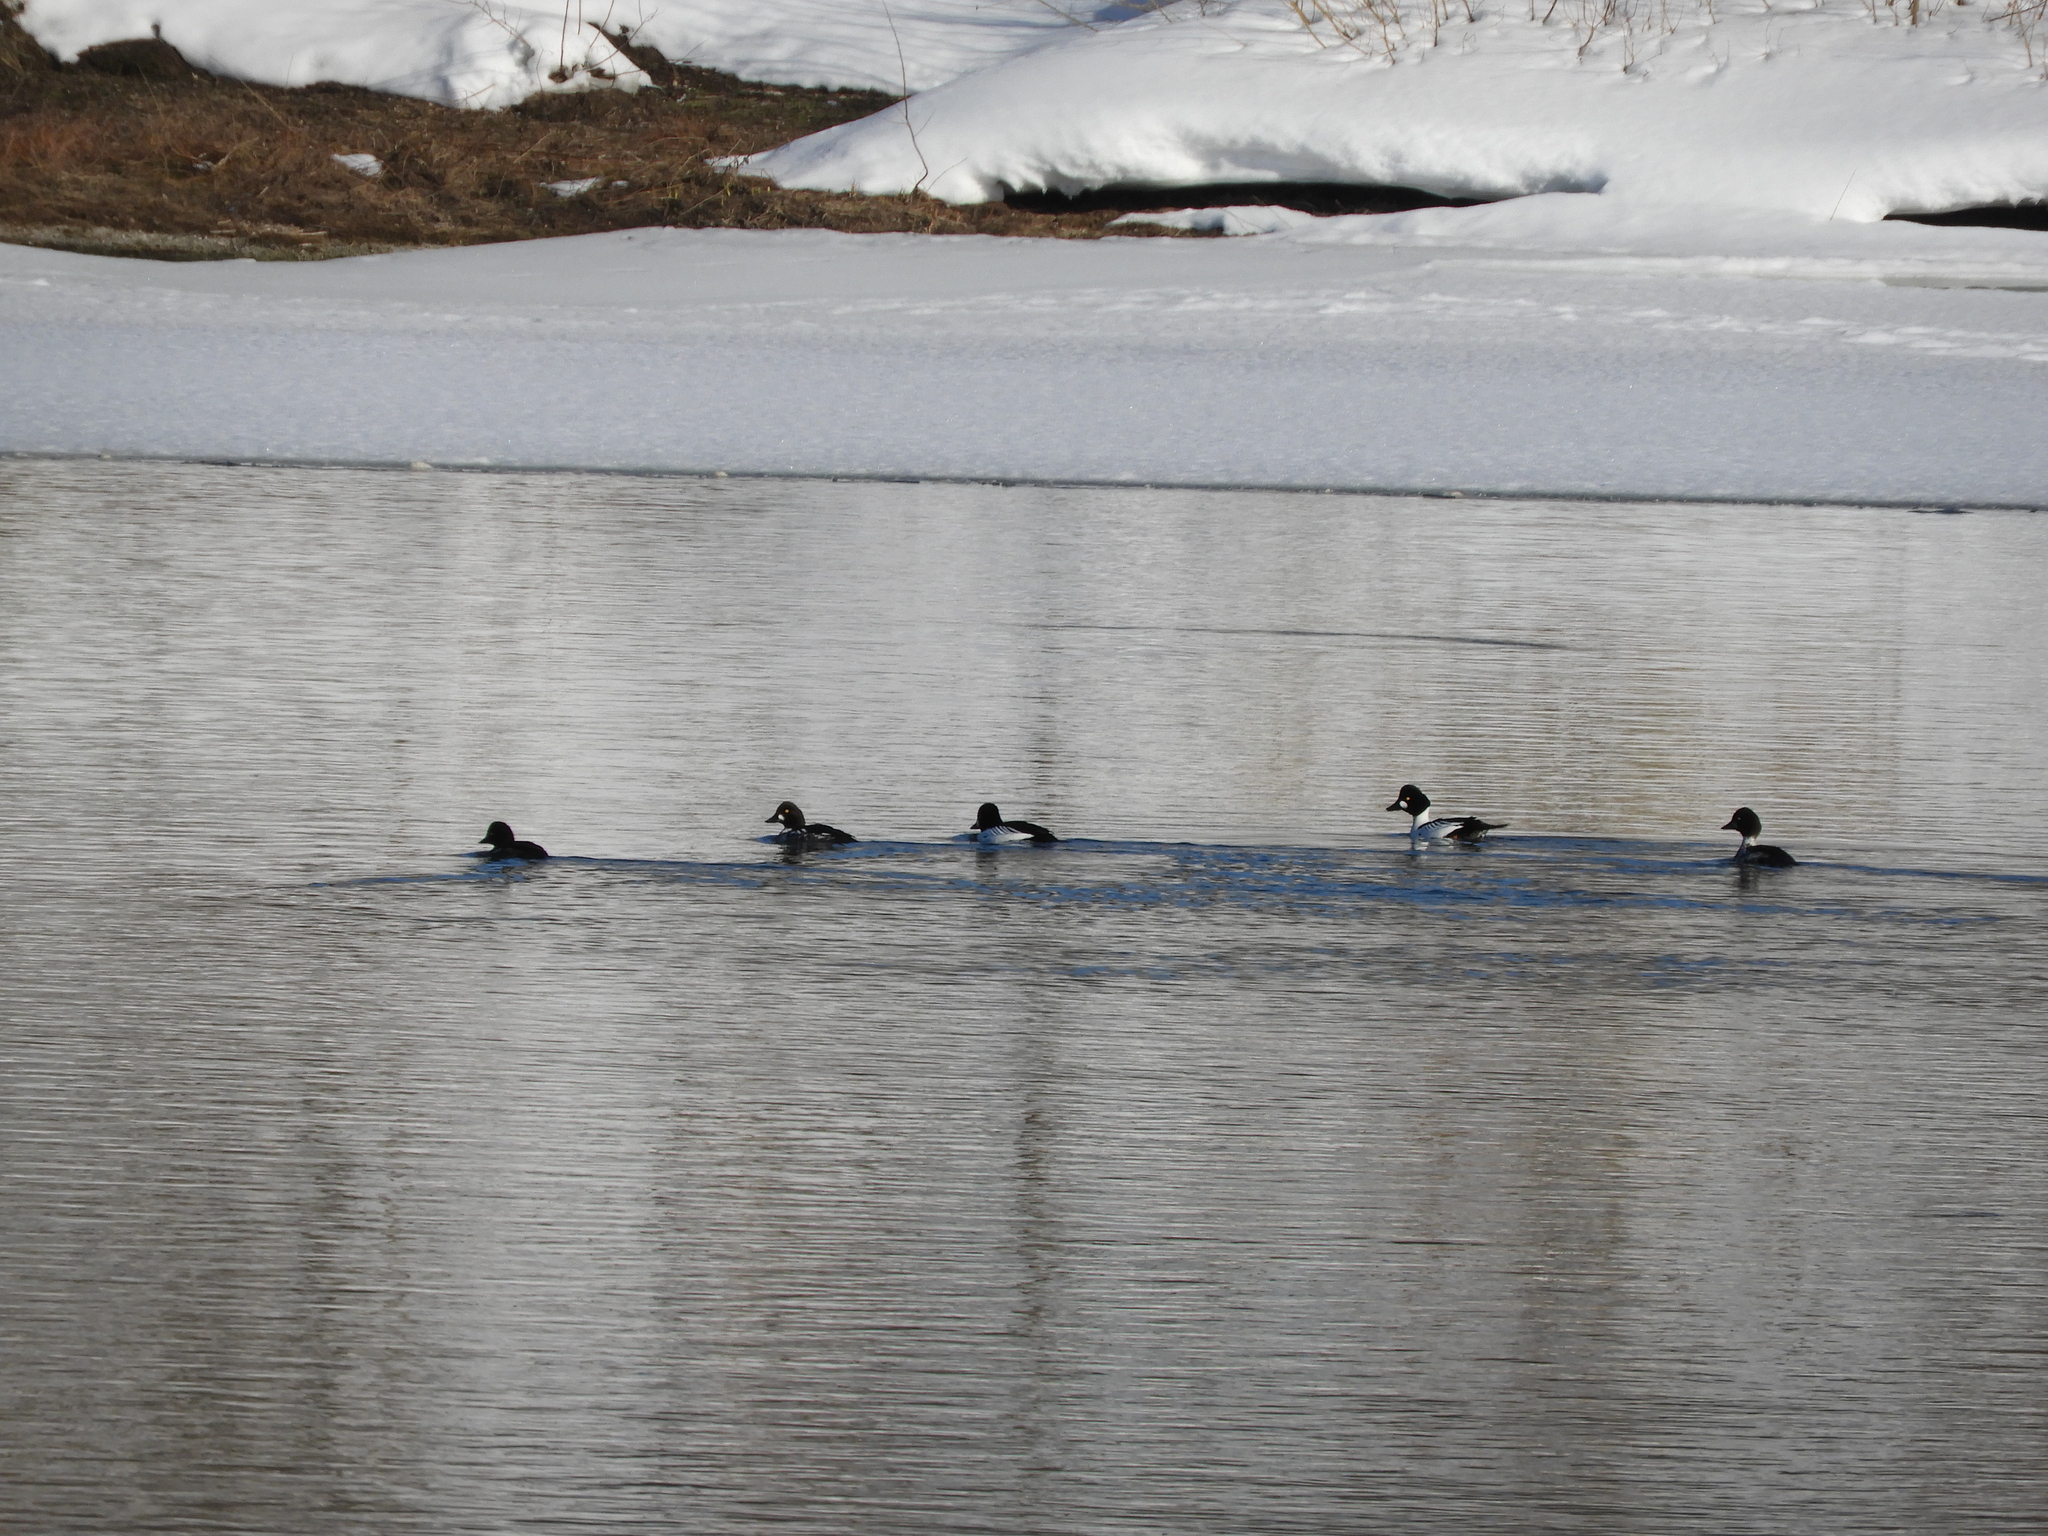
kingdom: Animalia
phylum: Chordata
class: Aves
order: Anseriformes
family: Anatidae
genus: Bucephala
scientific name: Bucephala clangula
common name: Common goldeneye
